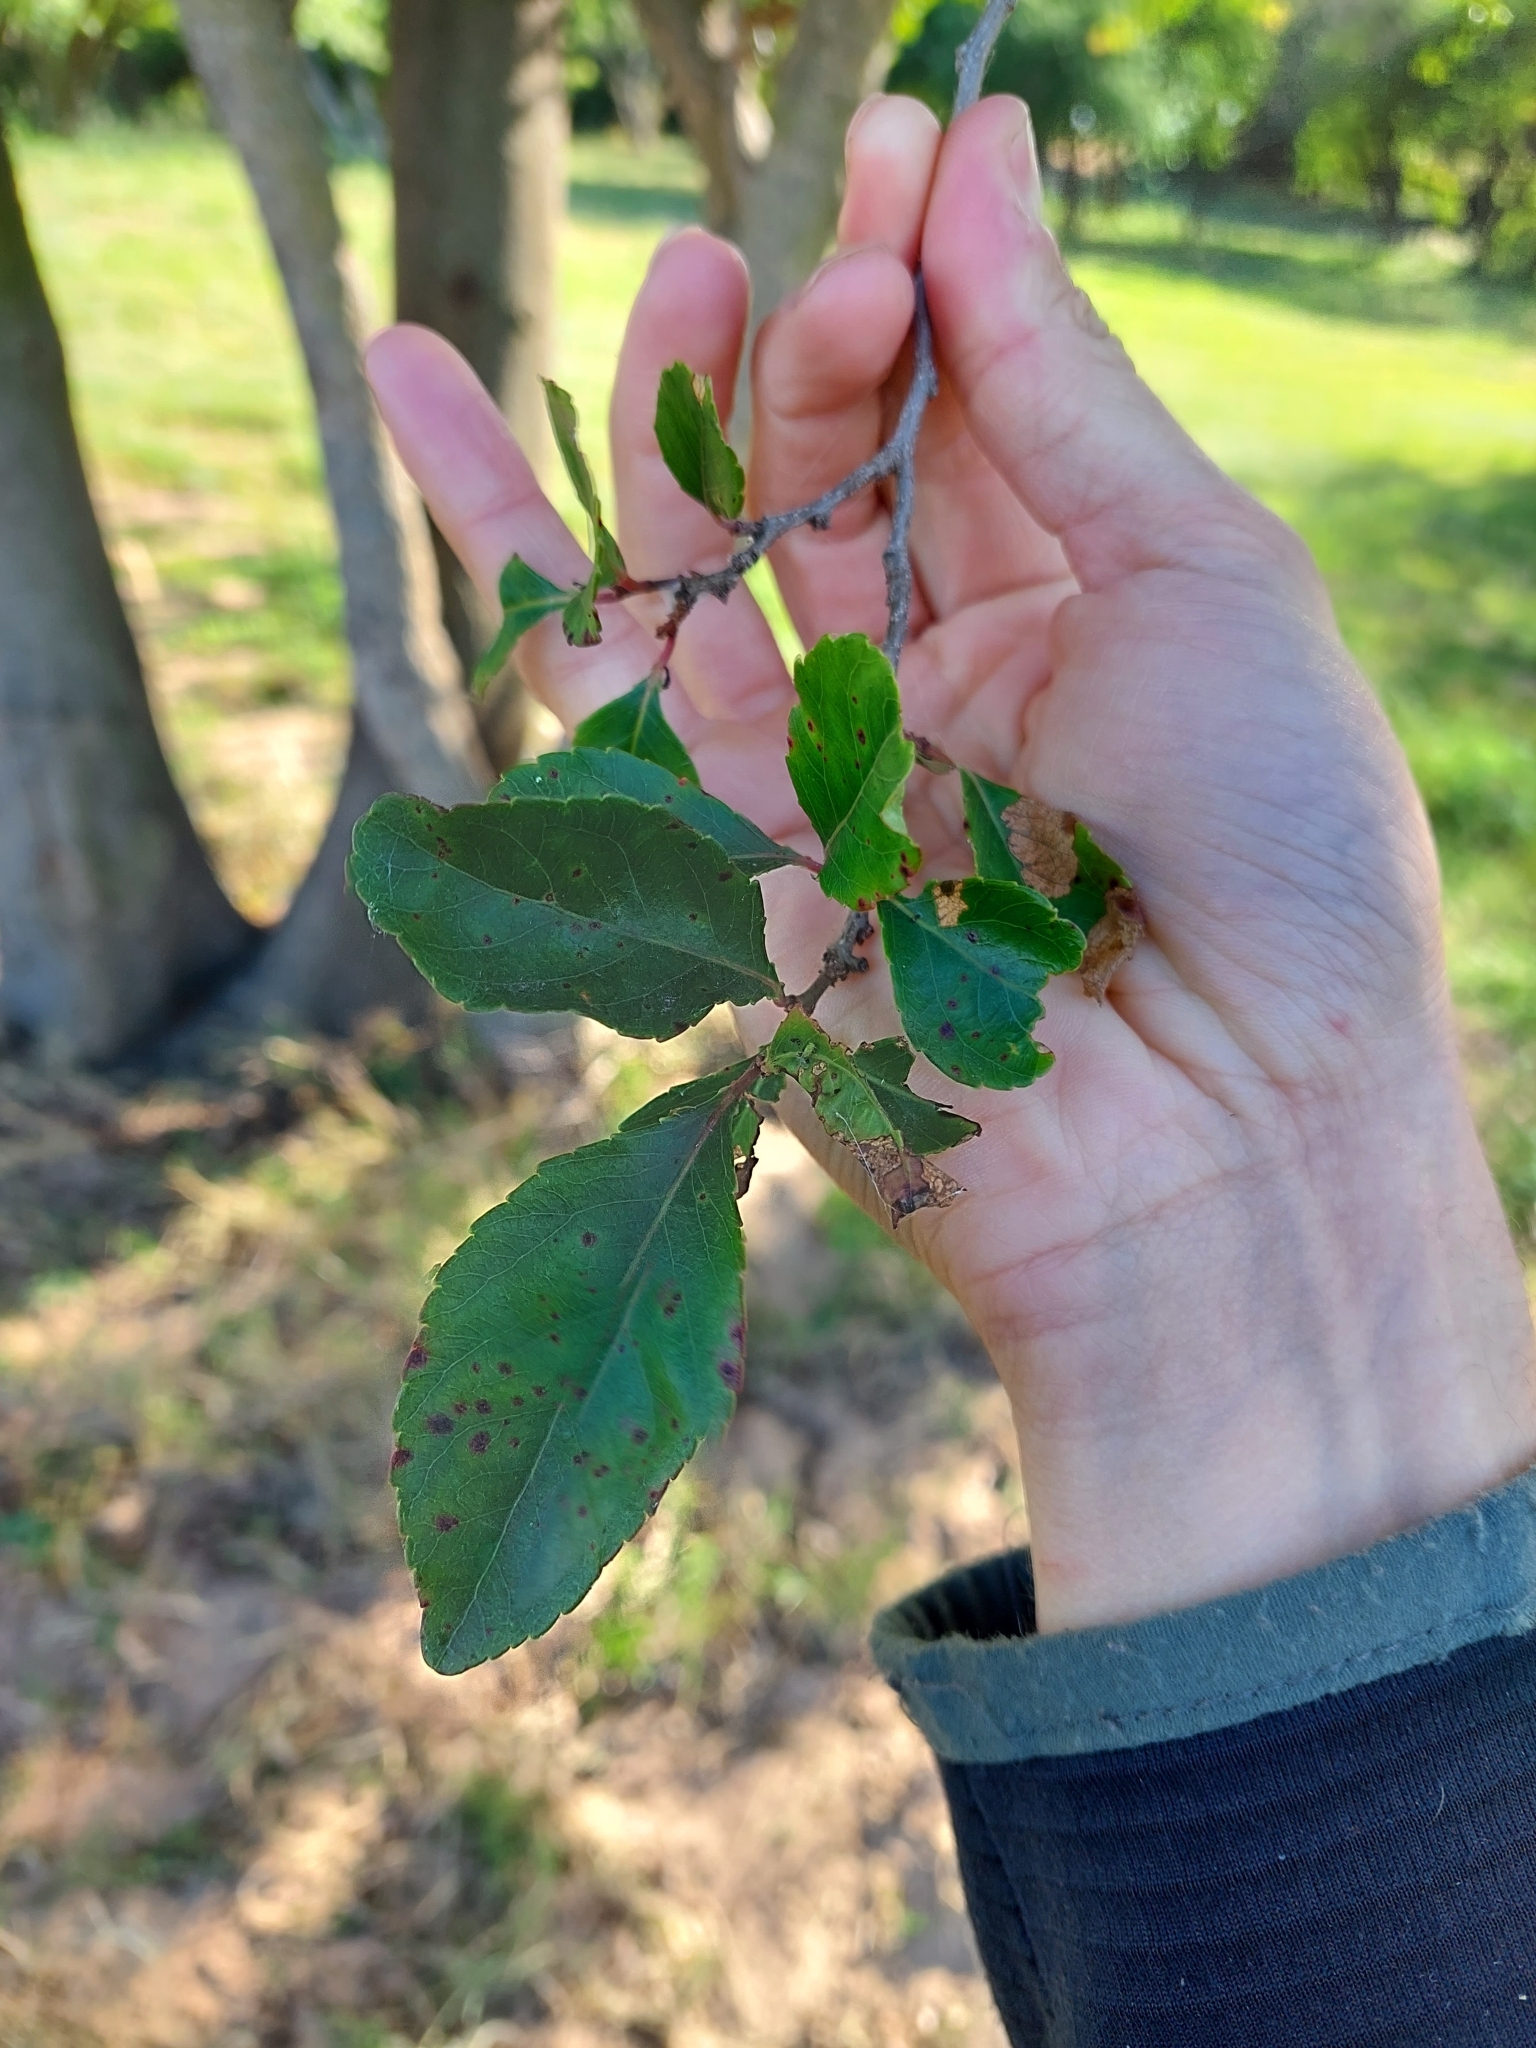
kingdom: Plantae
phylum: Tracheophyta
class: Magnoliopsida
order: Malpighiales
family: Salicaceae
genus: Xylosma
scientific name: Xylosma venosa
